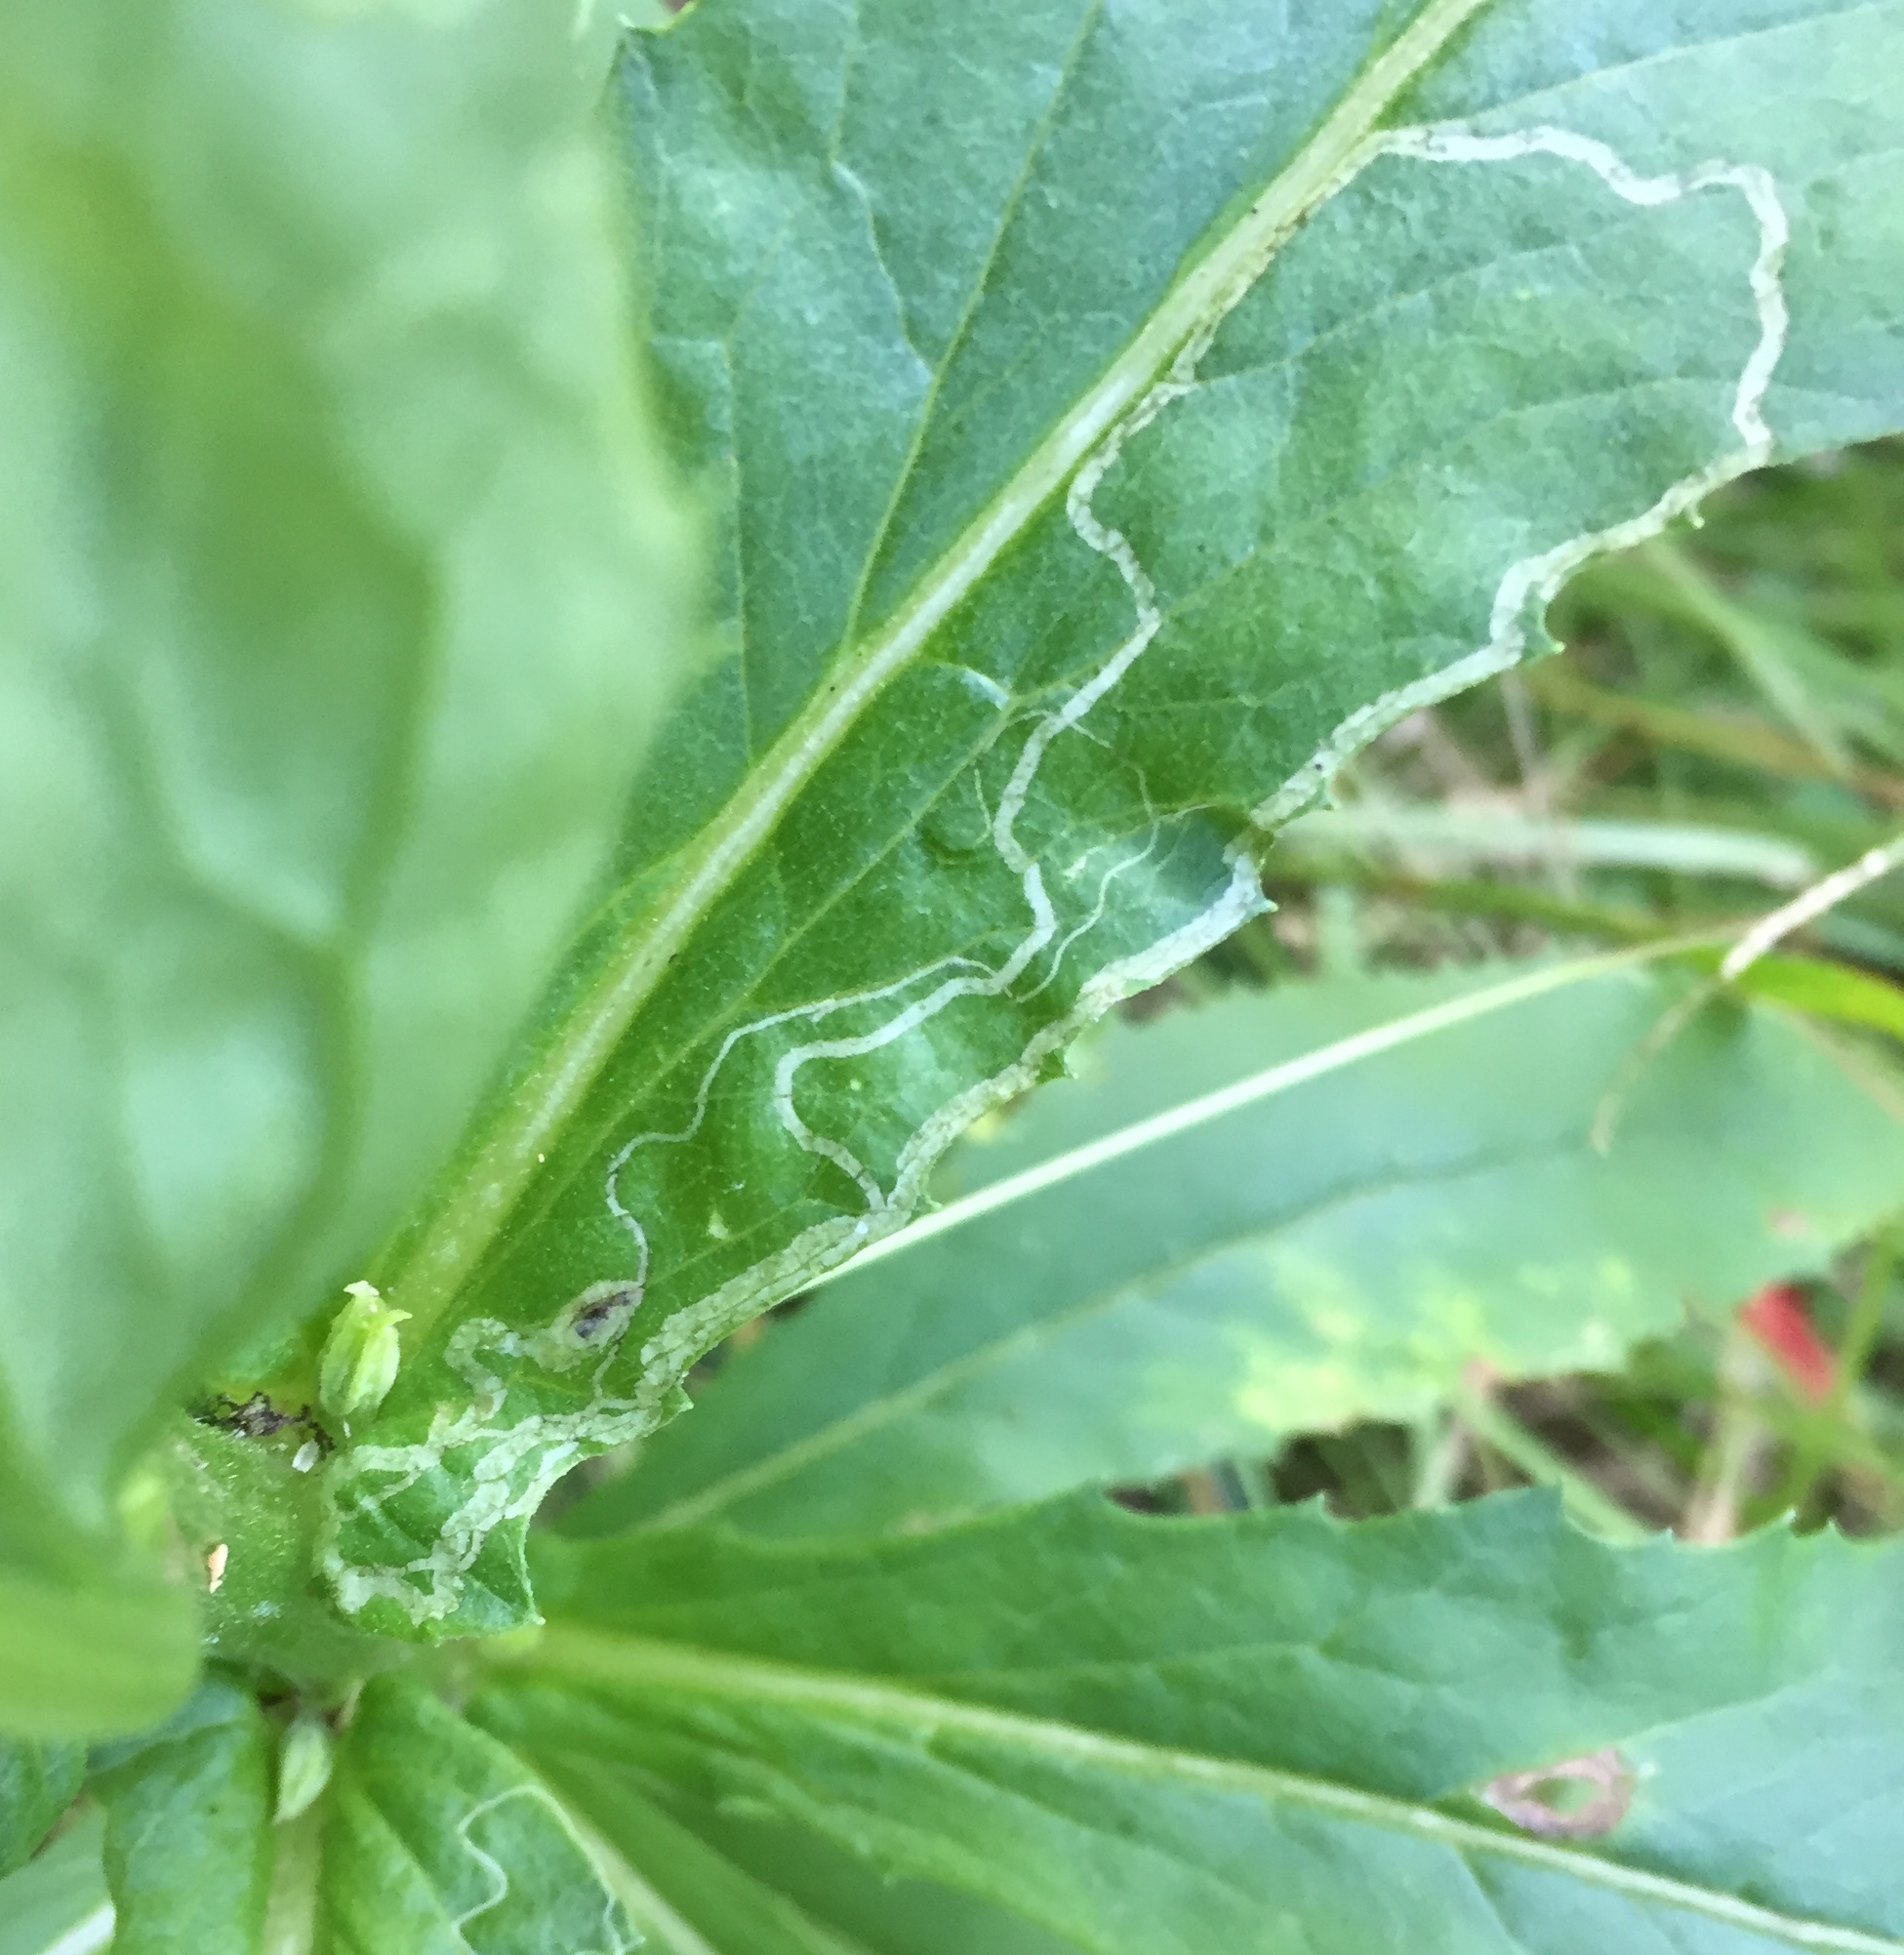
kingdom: Animalia
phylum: Arthropoda
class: Insecta
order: Lepidoptera
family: Gracillariidae
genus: Phyllocnistis
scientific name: Phyllocnistis insignis
